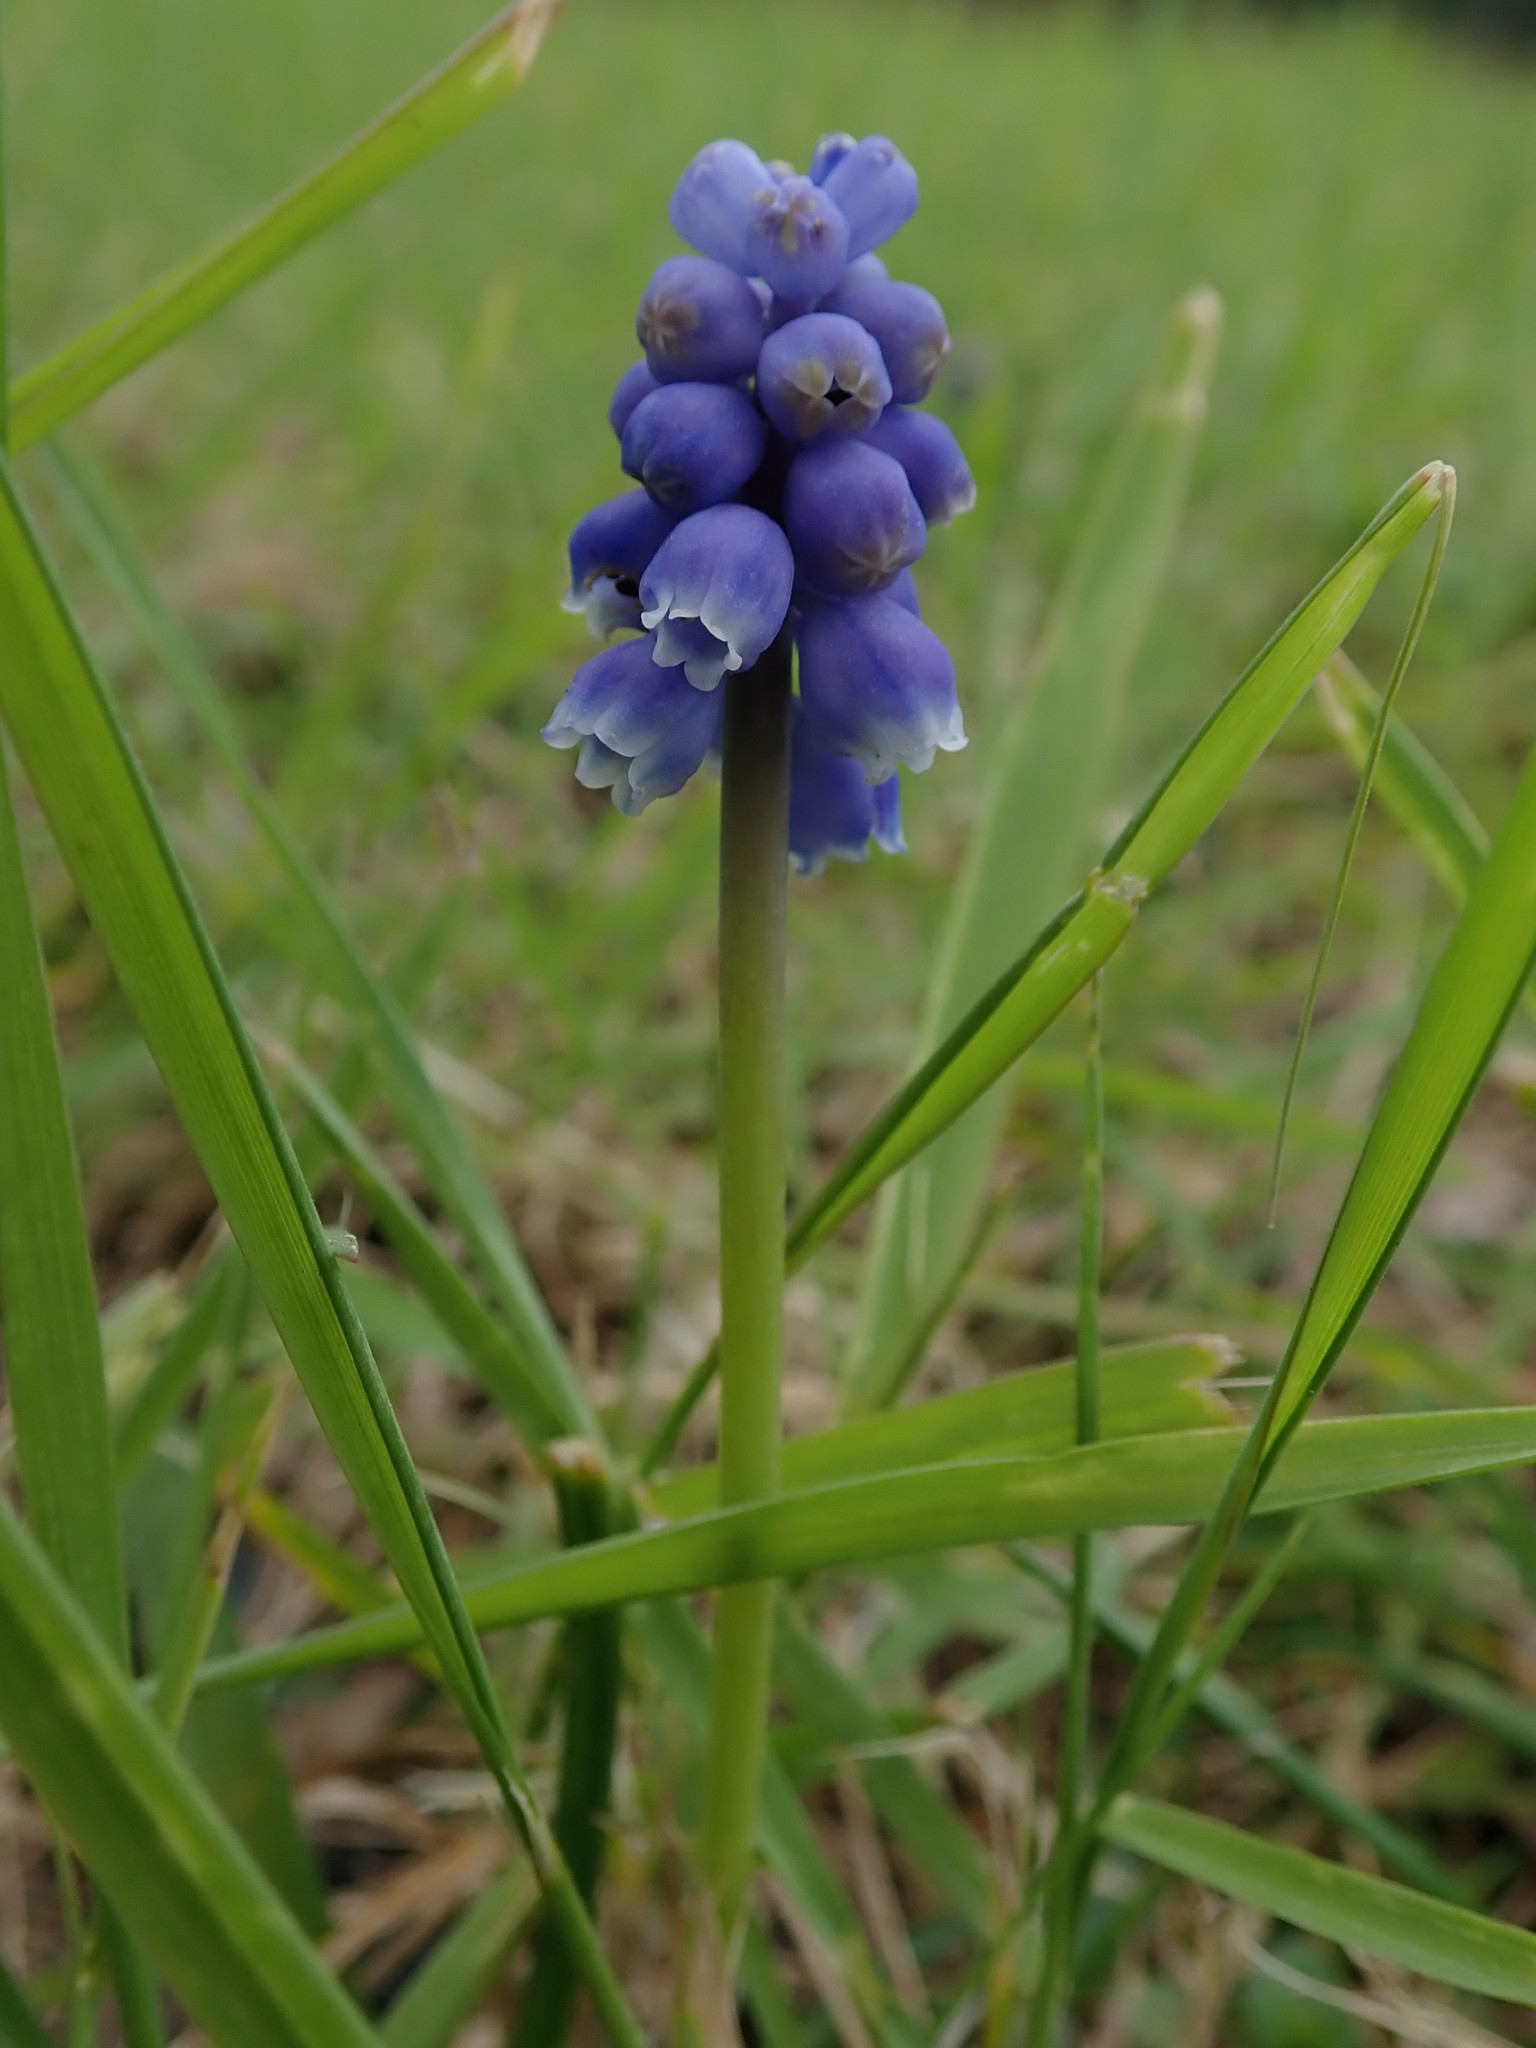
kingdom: Plantae
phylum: Tracheophyta
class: Liliopsida
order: Asparagales
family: Asparagaceae
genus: Muscari
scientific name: Muscari armeniacum
